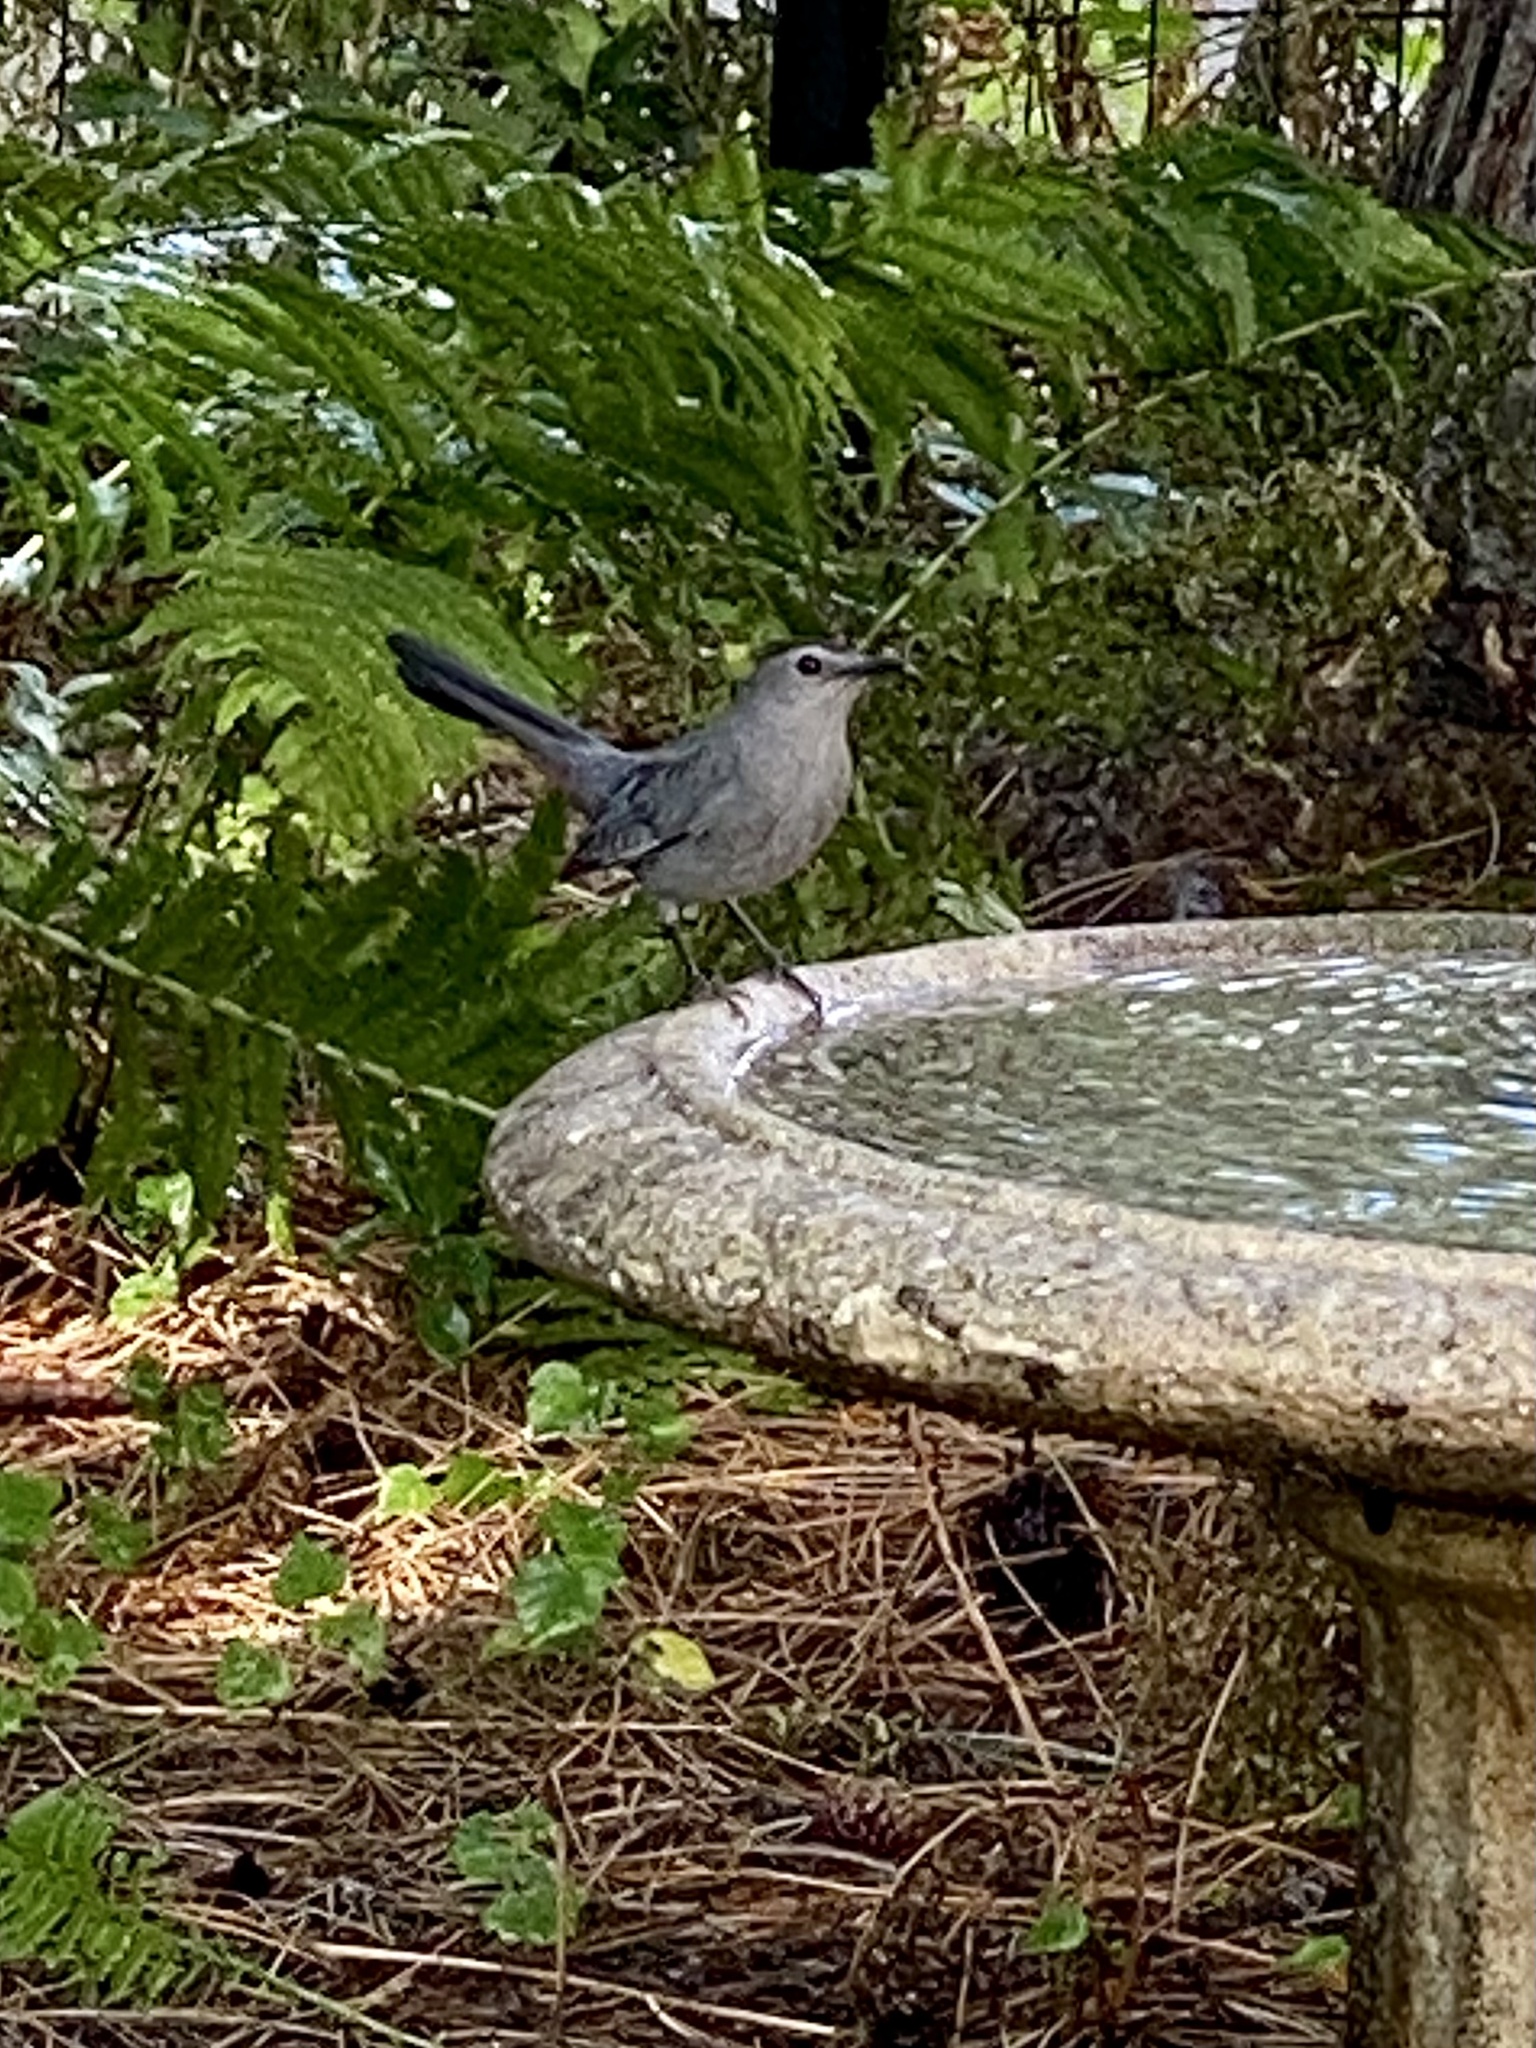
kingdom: Animalia
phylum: Chordata
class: Aves
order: Passeriformes
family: Mimidae
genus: Dumetella
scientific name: Dumetella carolinensis
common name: Gray catbird
